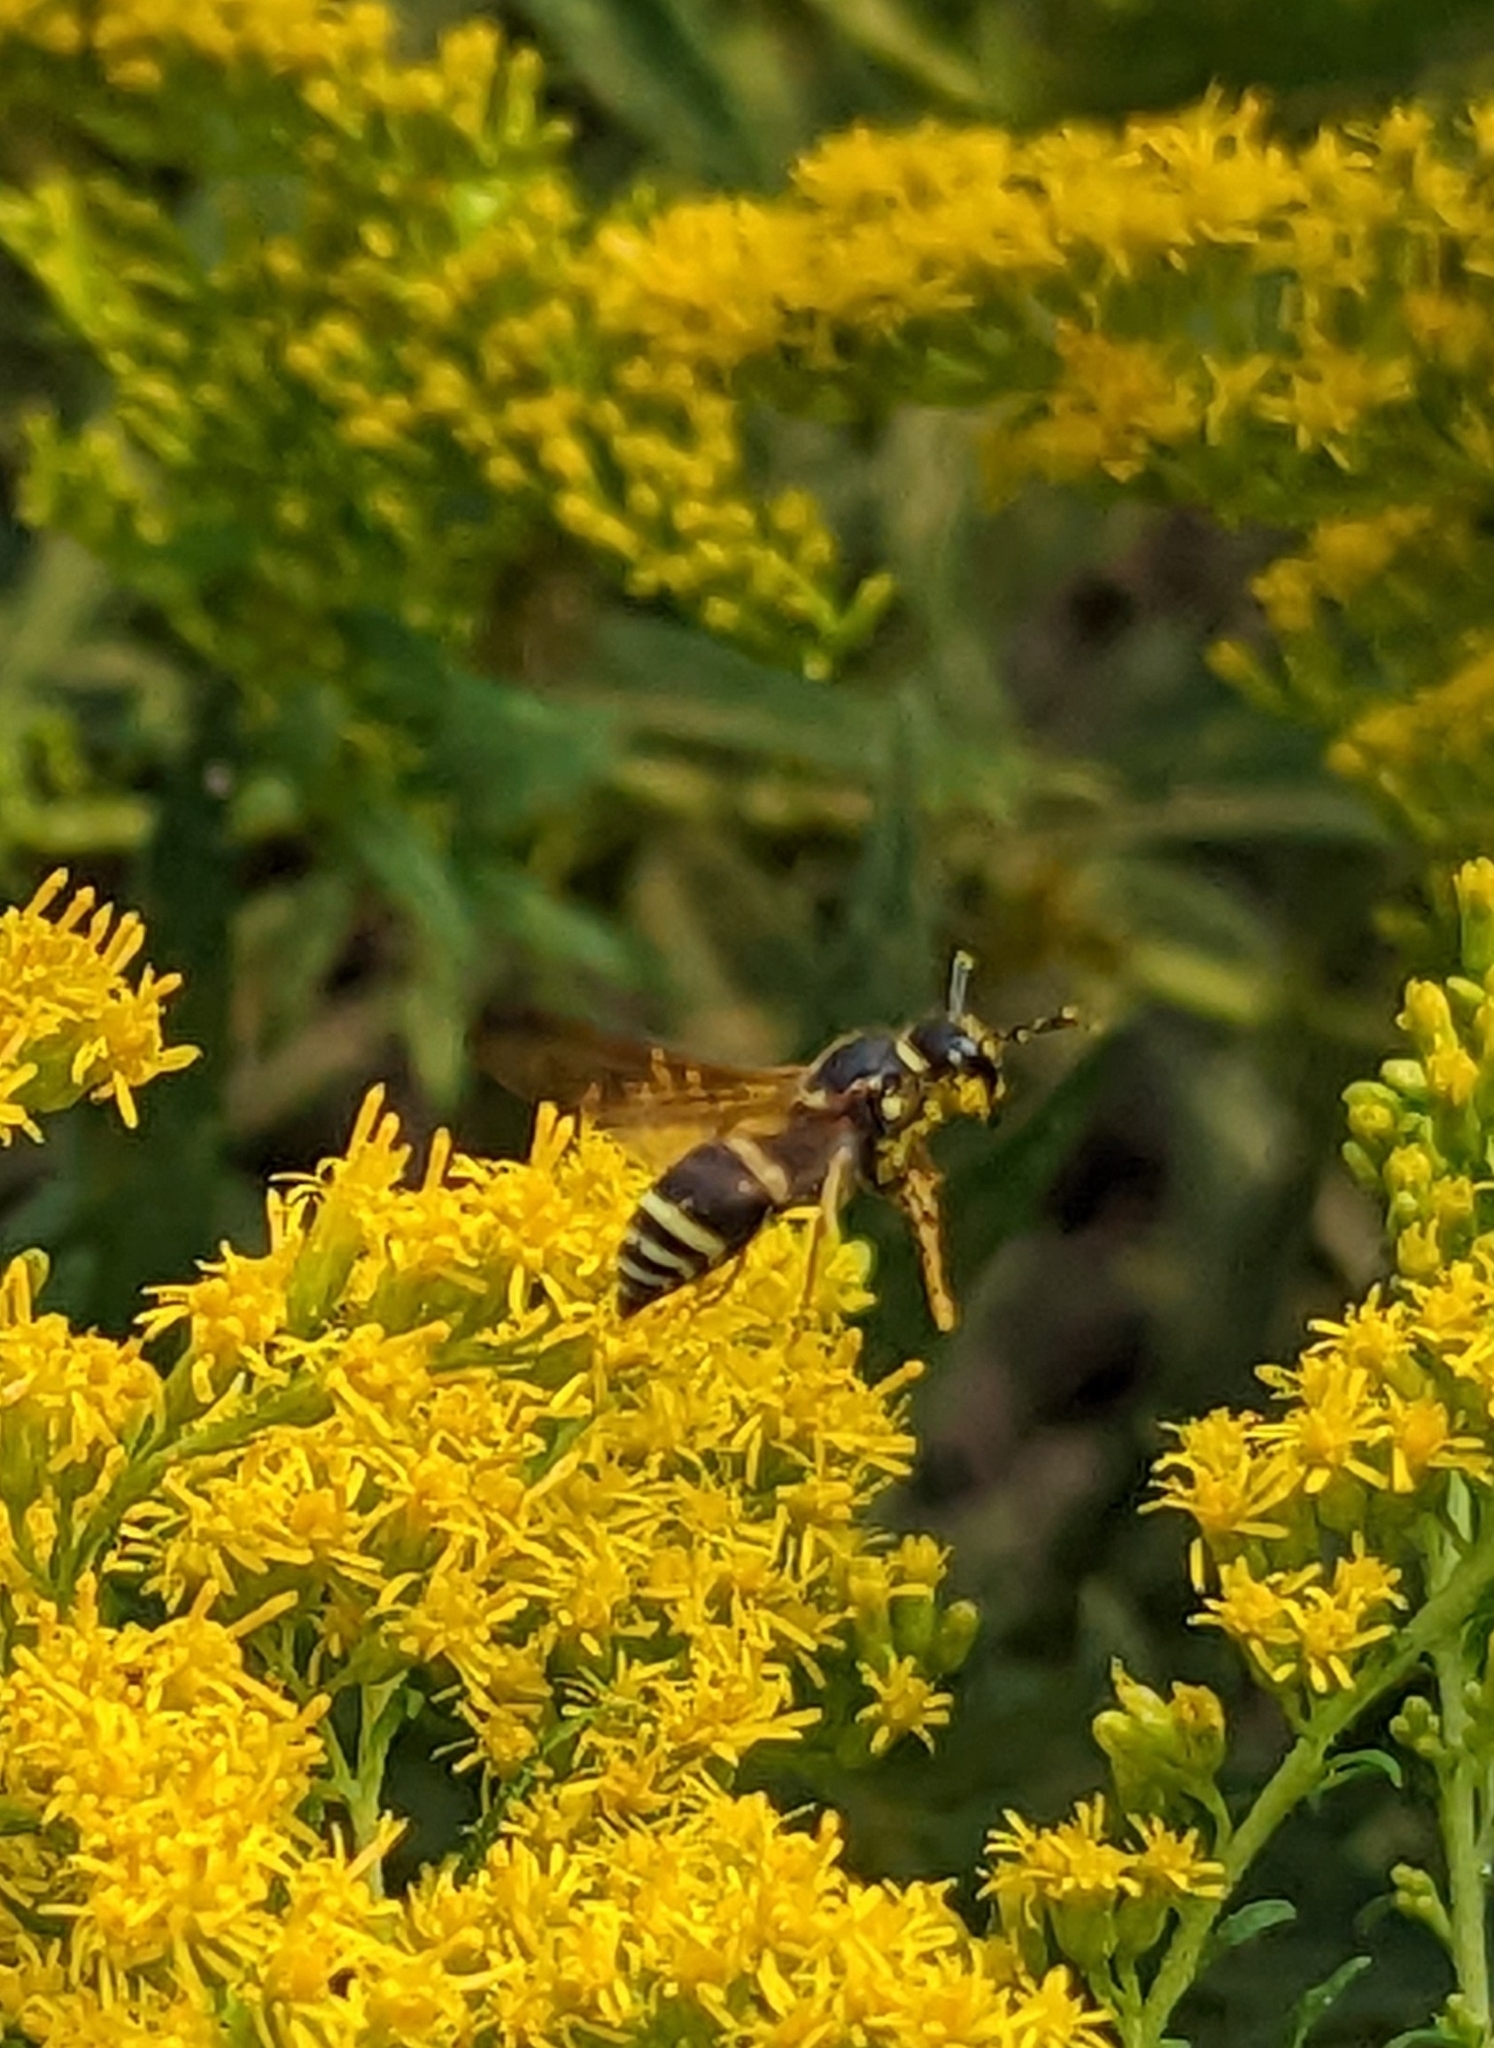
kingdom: Animalia
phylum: Arthropoda
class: Insecta
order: Hymenoptera
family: Vespidae
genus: Ancistrocerus
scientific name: Ancistrocerus
